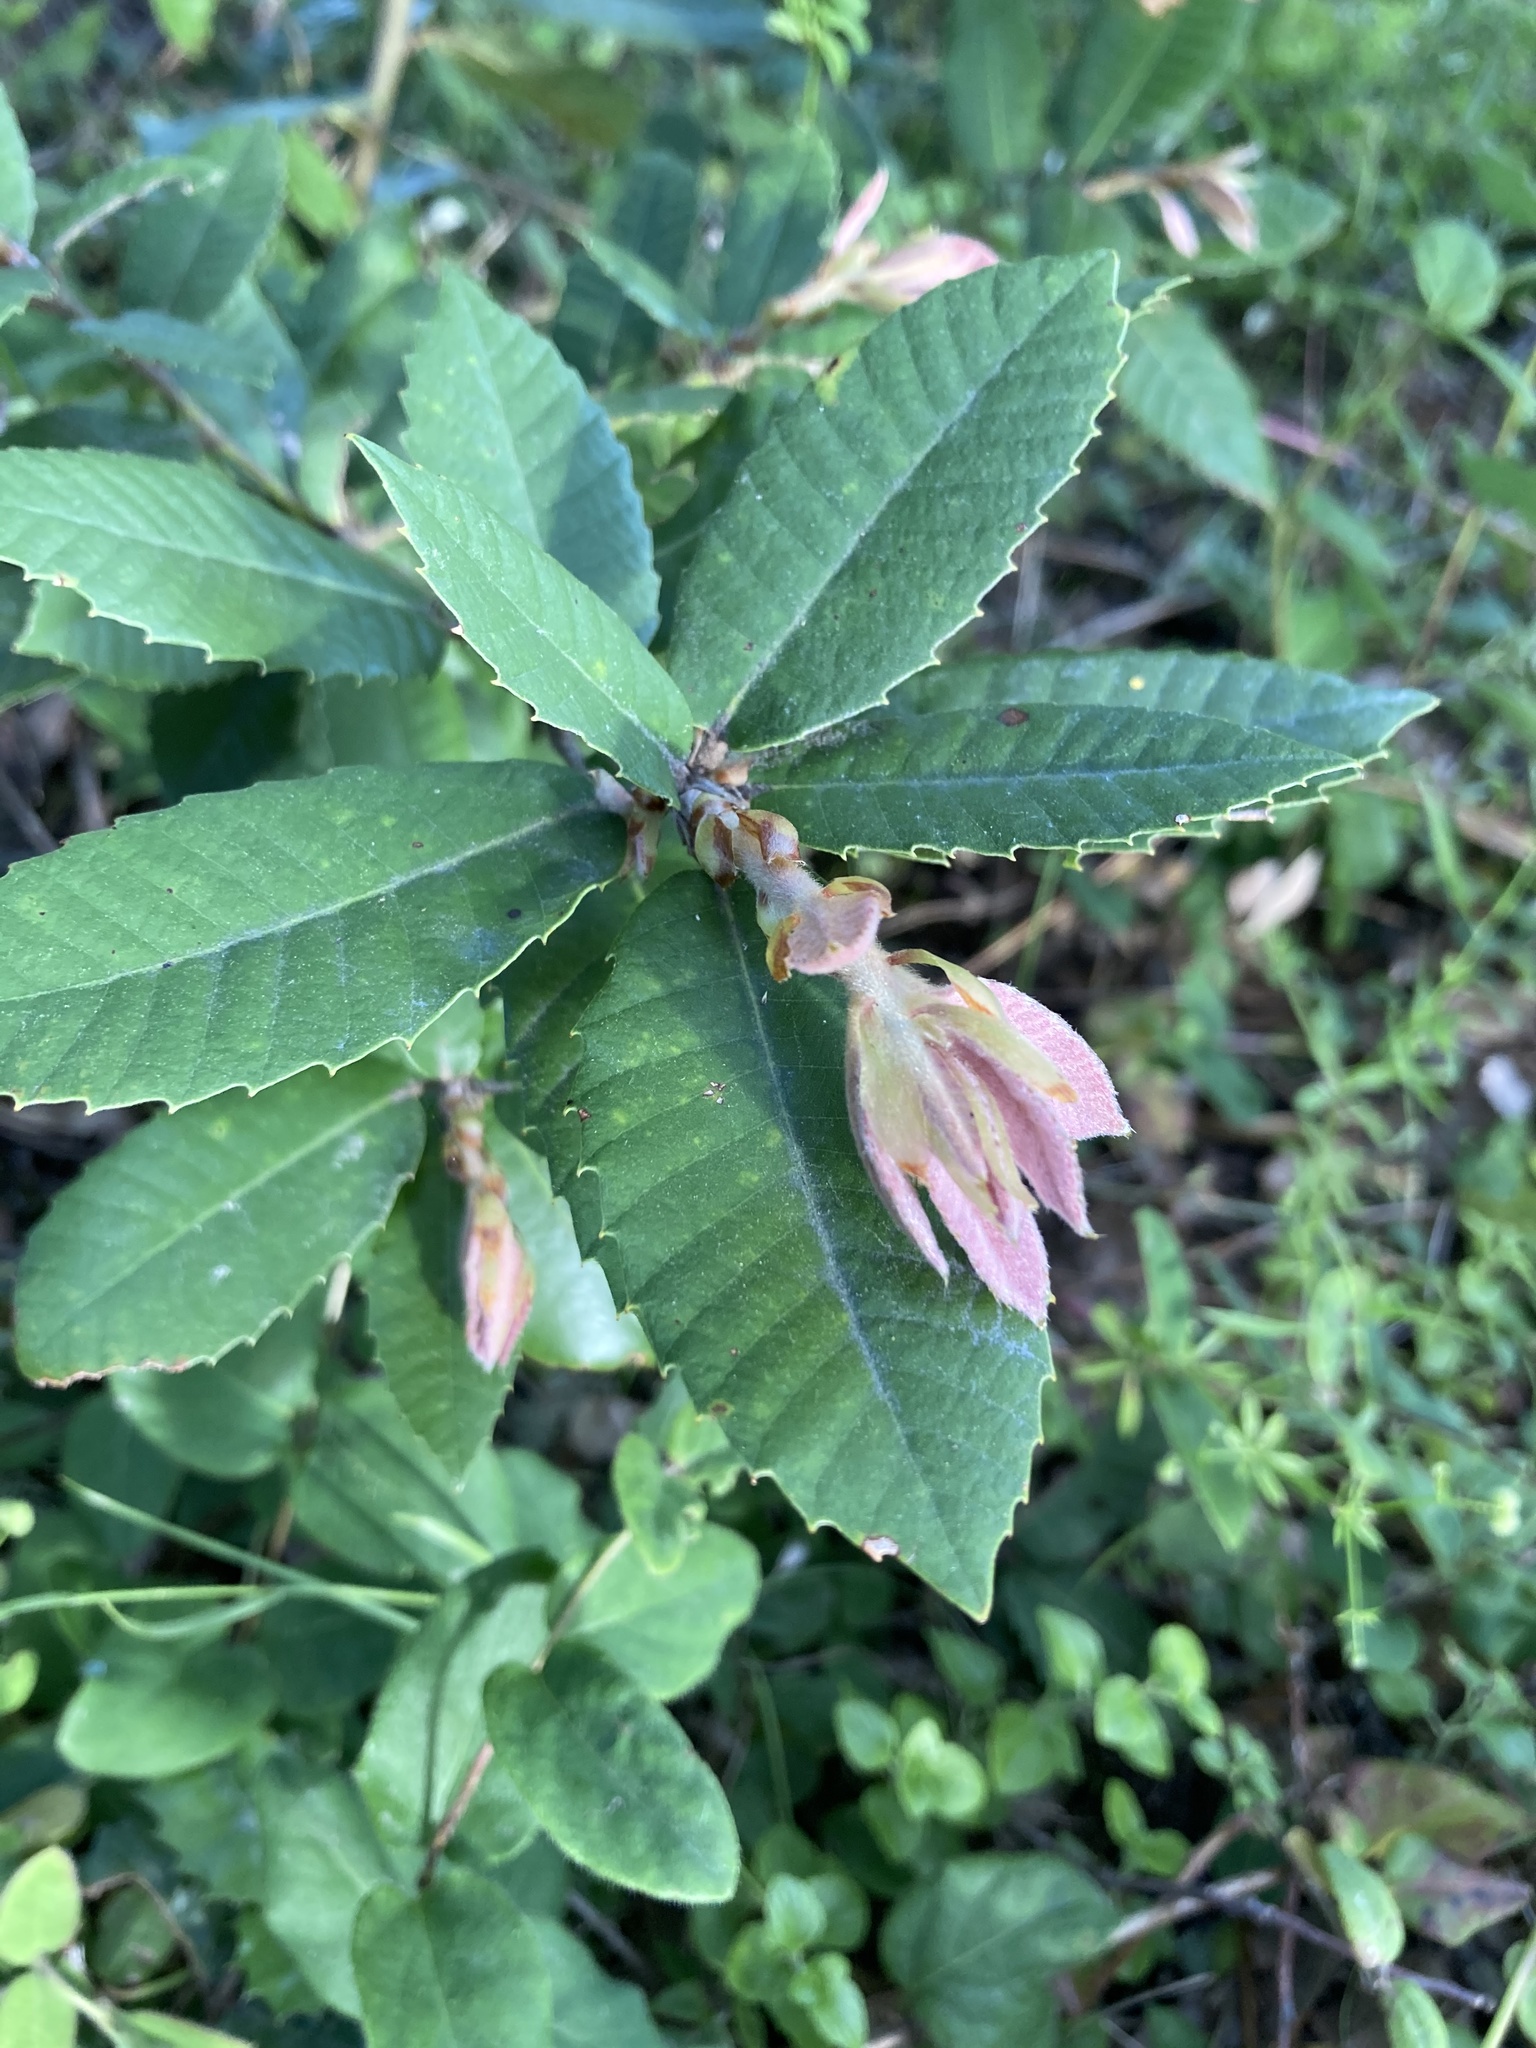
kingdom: Plantae
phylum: Tracheophyta
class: Magnoliopsida
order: Fagales
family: Fagaceae
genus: Notholithocarpus
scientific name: Notholithocarpus densiflorus
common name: Tan bark oak
